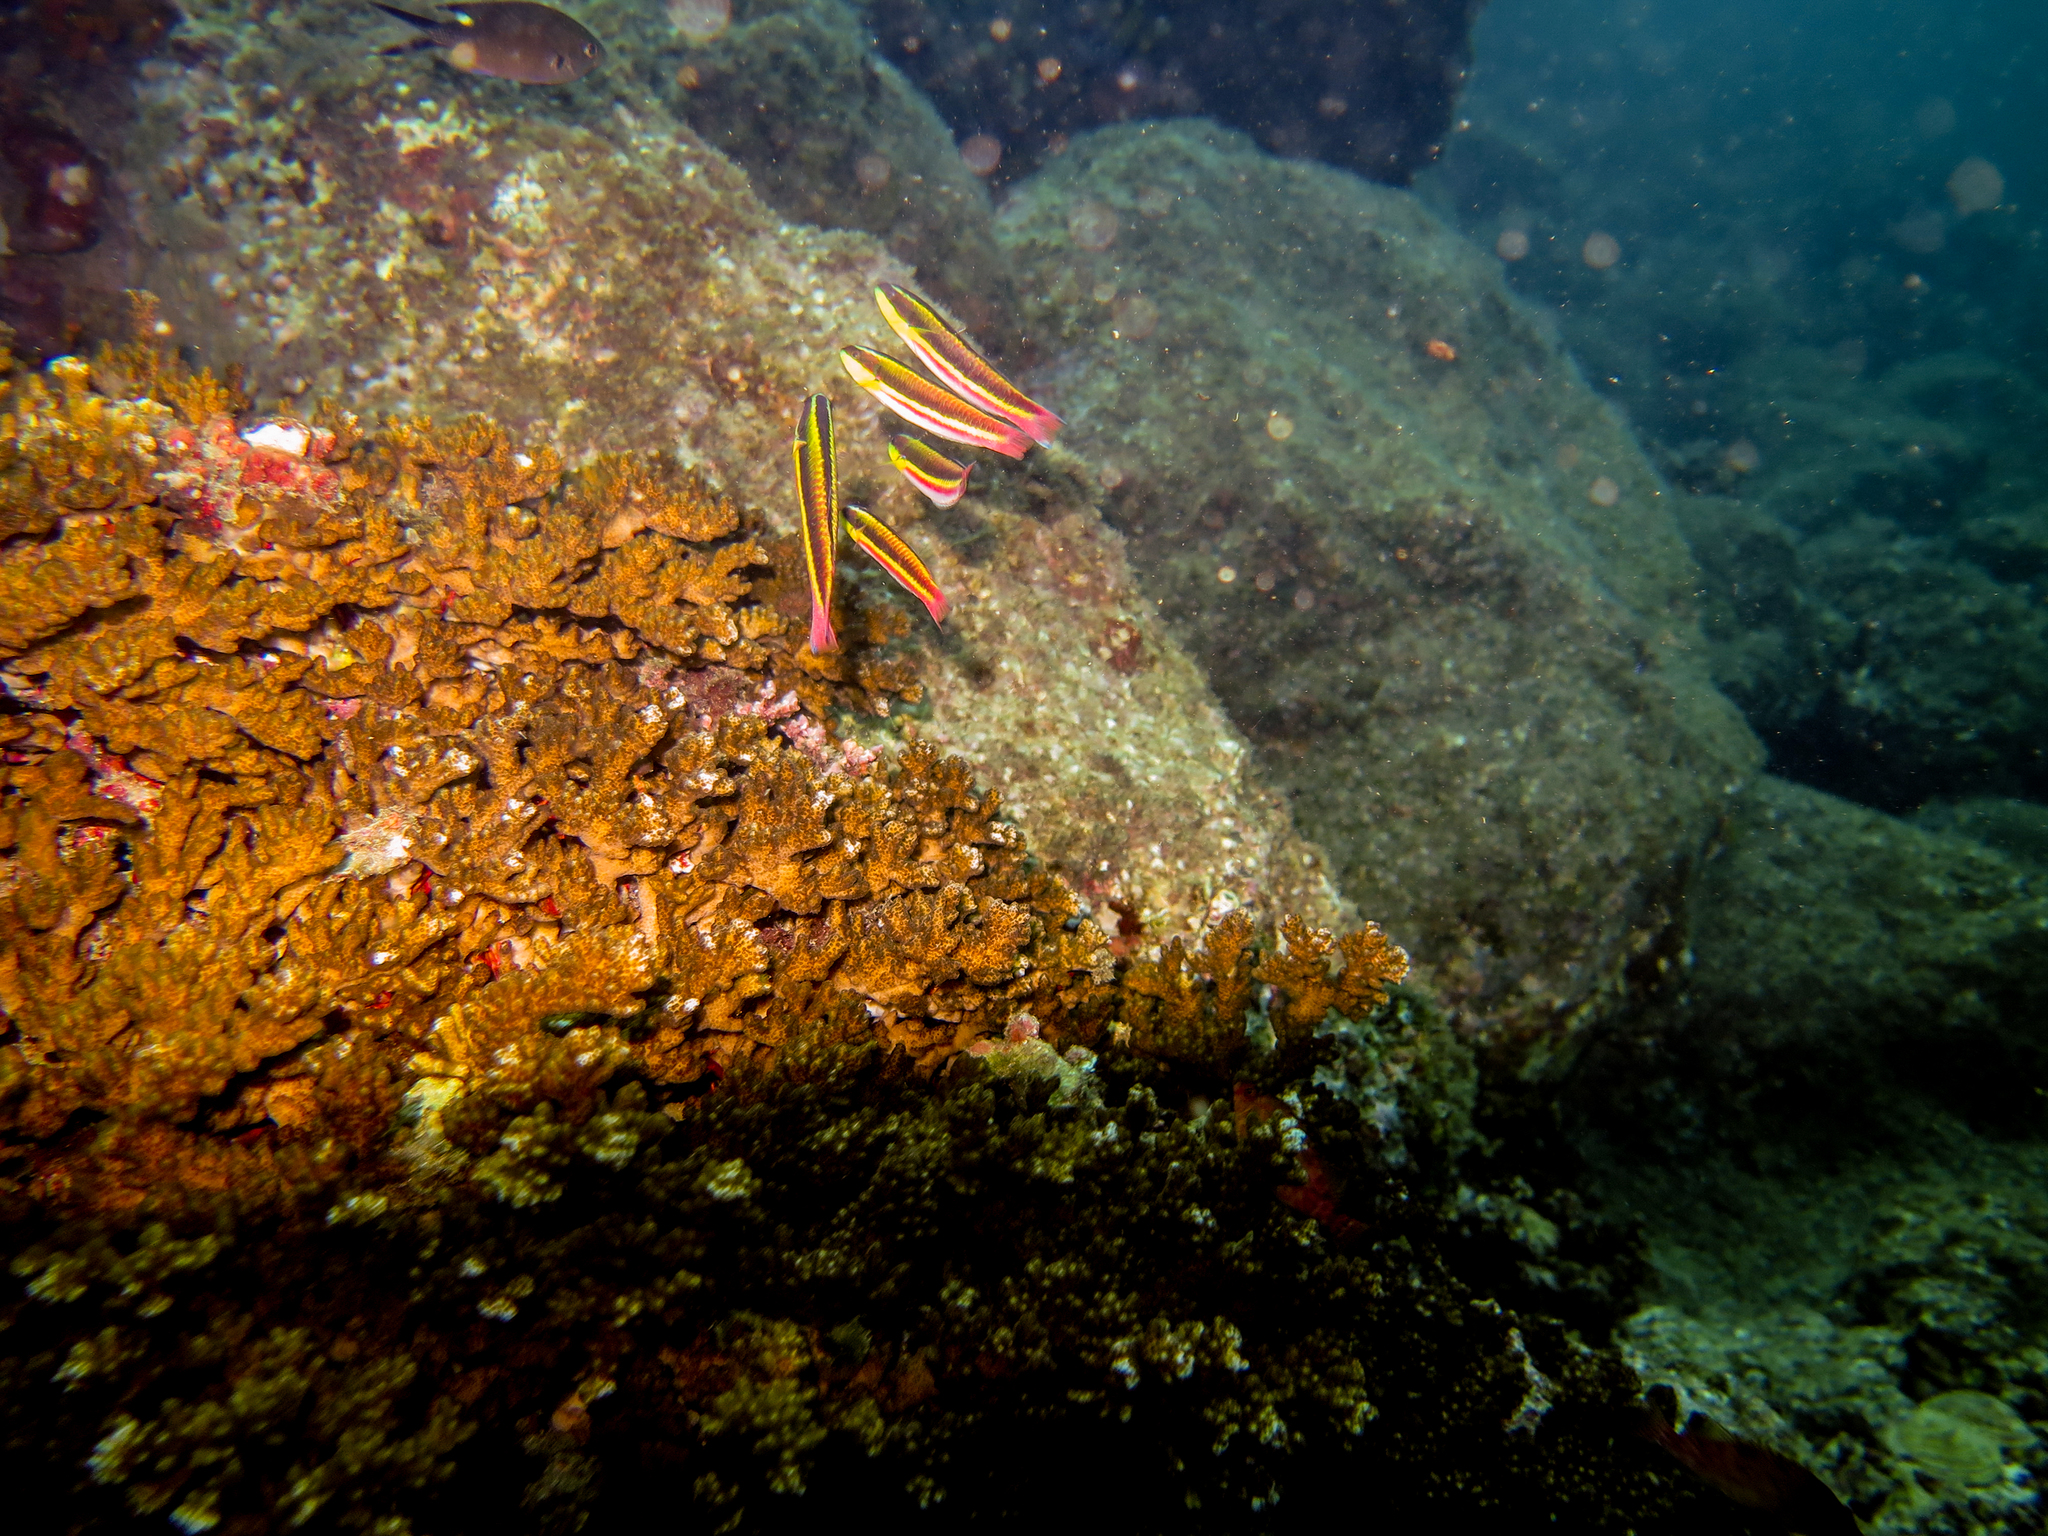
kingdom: Animalia
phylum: Chordata
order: Perciformes
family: Labridae
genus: Thalassoma
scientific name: Thalassoma lucasanum
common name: Cortez rainbow wrasse
